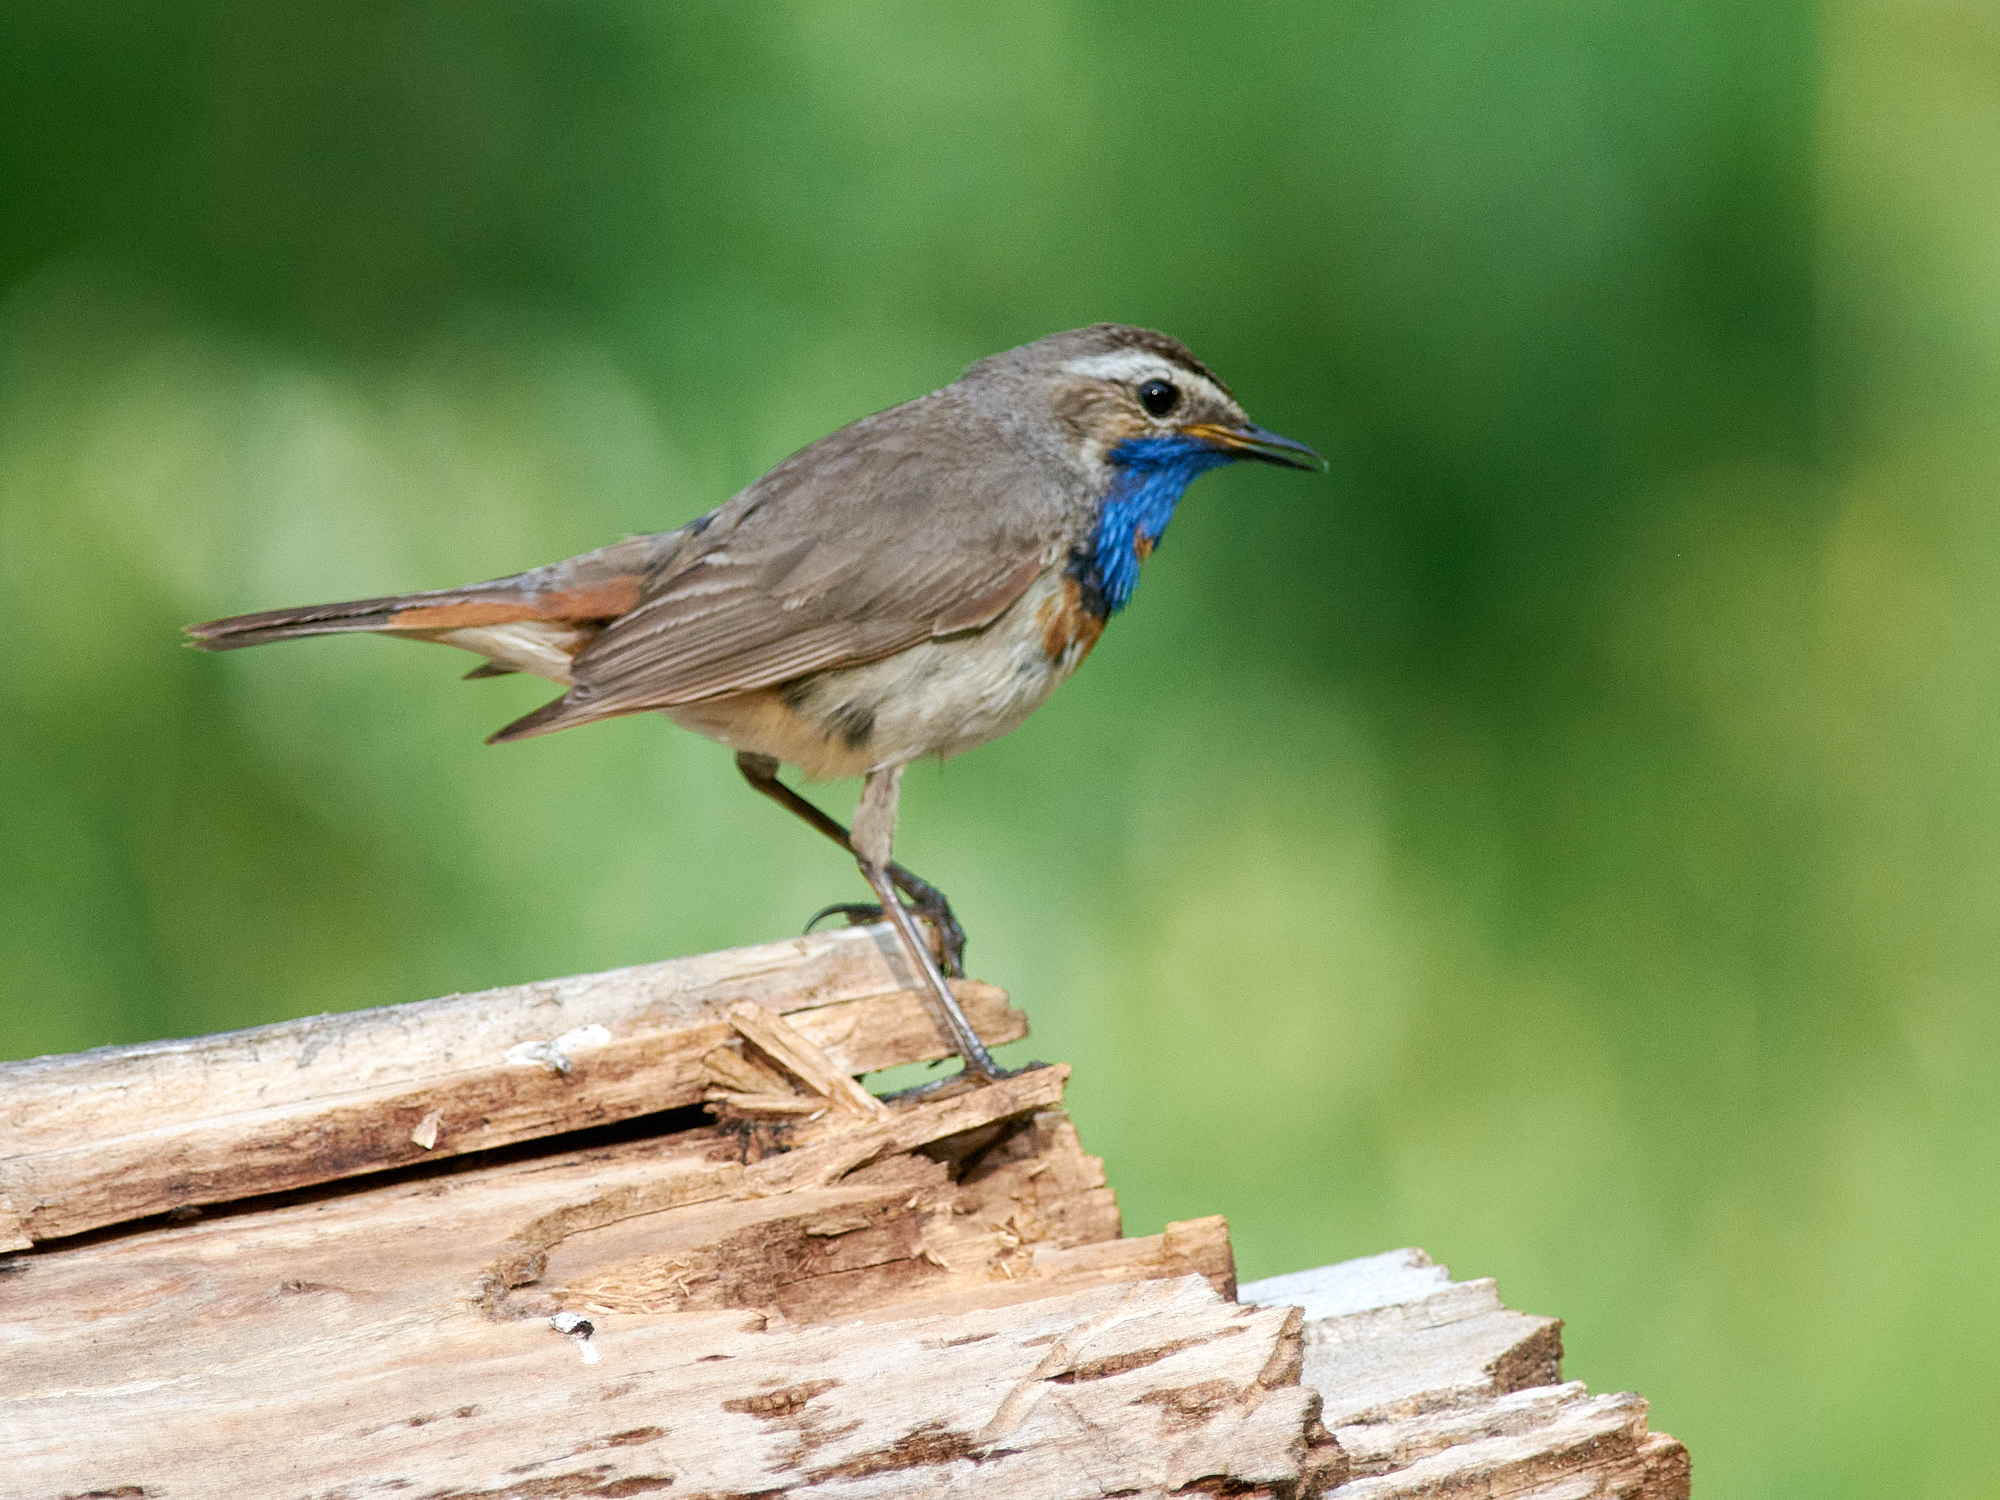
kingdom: Animalia
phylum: Chordata
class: Aves
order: Passeriformes
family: Muscicapidae
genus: Luscinia
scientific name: Luscinia svecica
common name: Bluethroat
